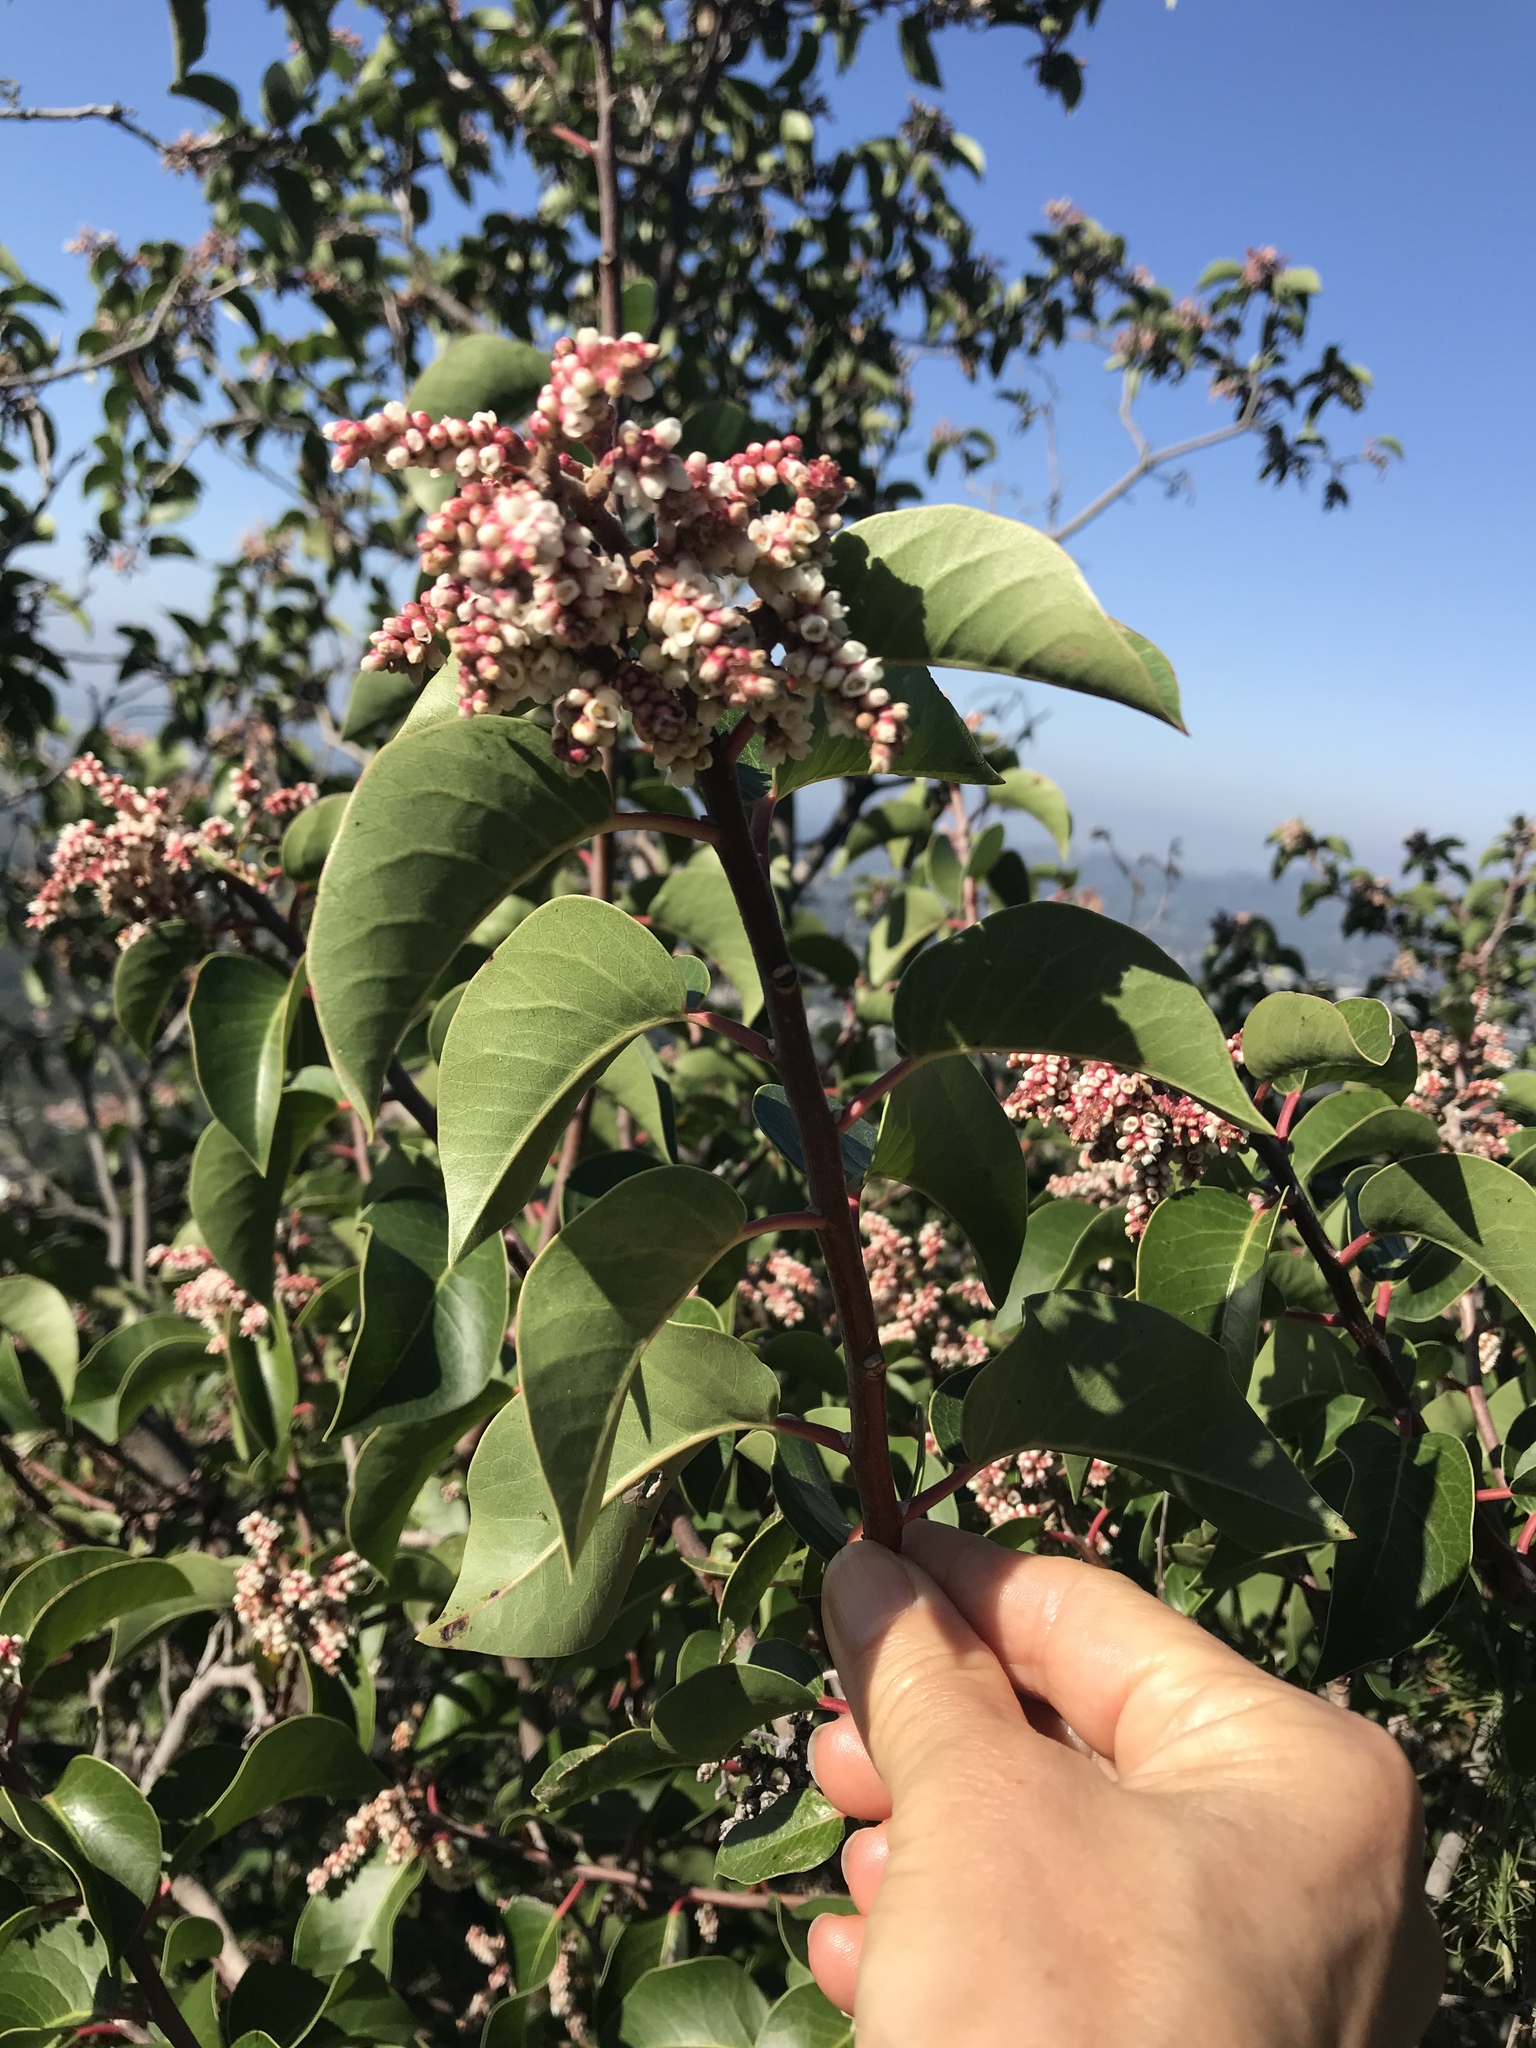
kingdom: Plantae
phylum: Tracheophyta
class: Magnoliopsida
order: Sapindales
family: Anacardiaceae
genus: Rhus
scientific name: Rhus ovata
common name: Sugar sumac
